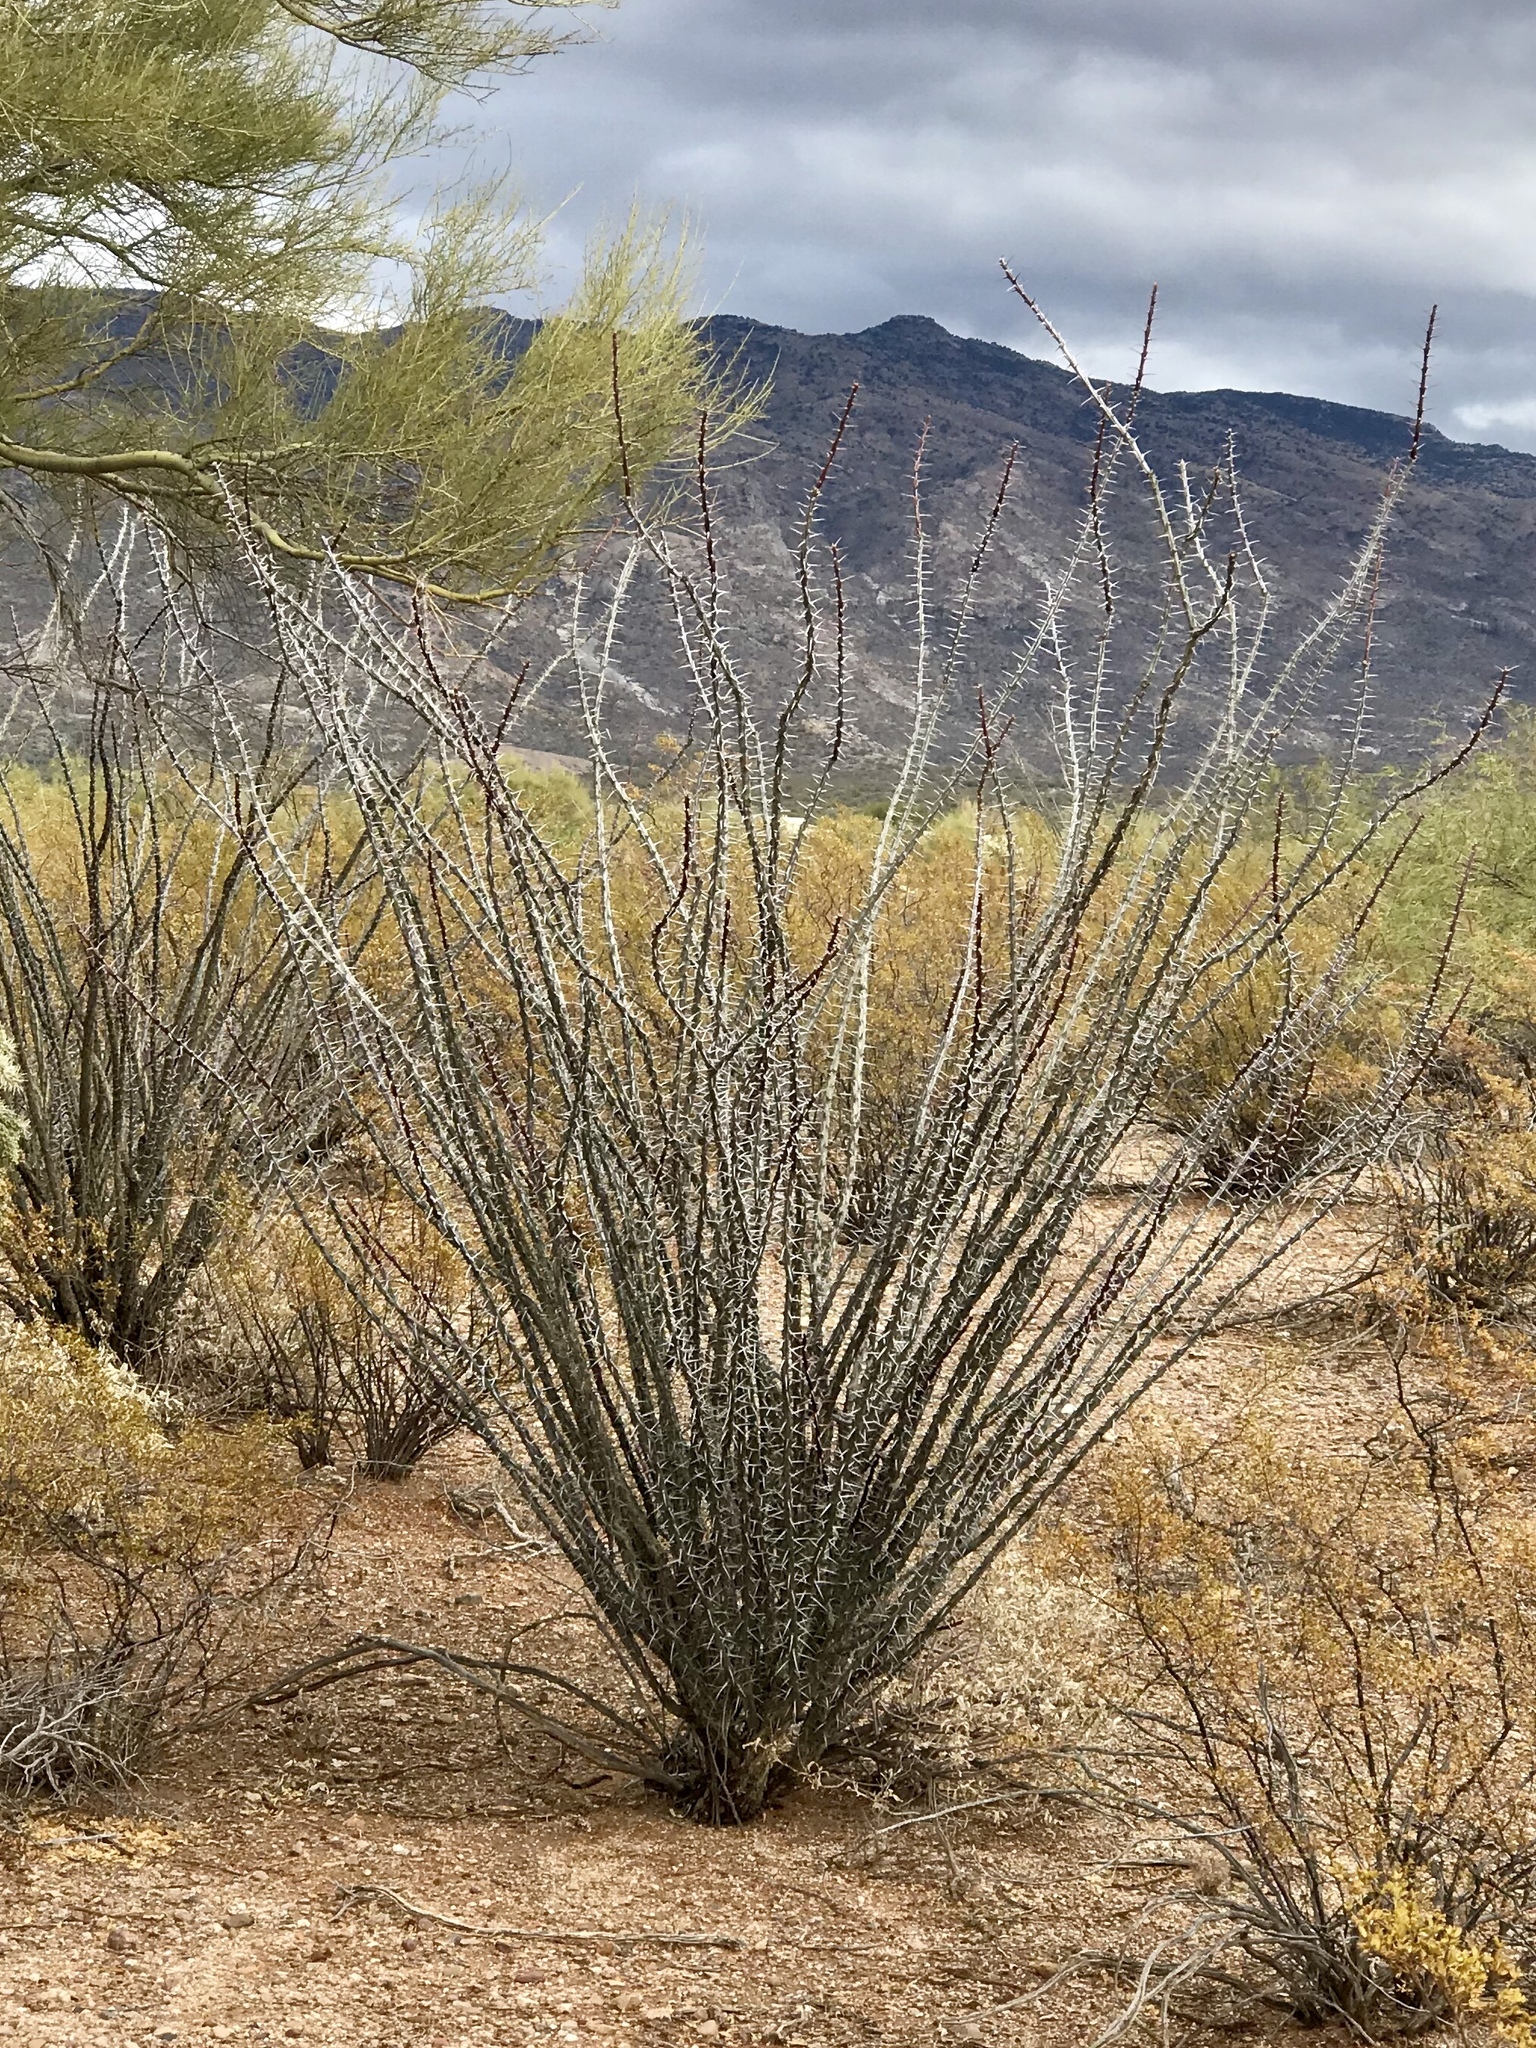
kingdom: Plantae
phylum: Tracheophyta
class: Magnoliopsida
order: Ericales
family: Fouquieriaceae
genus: Fouquieria
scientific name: Fouquieria splendens
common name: Vine-cactus
